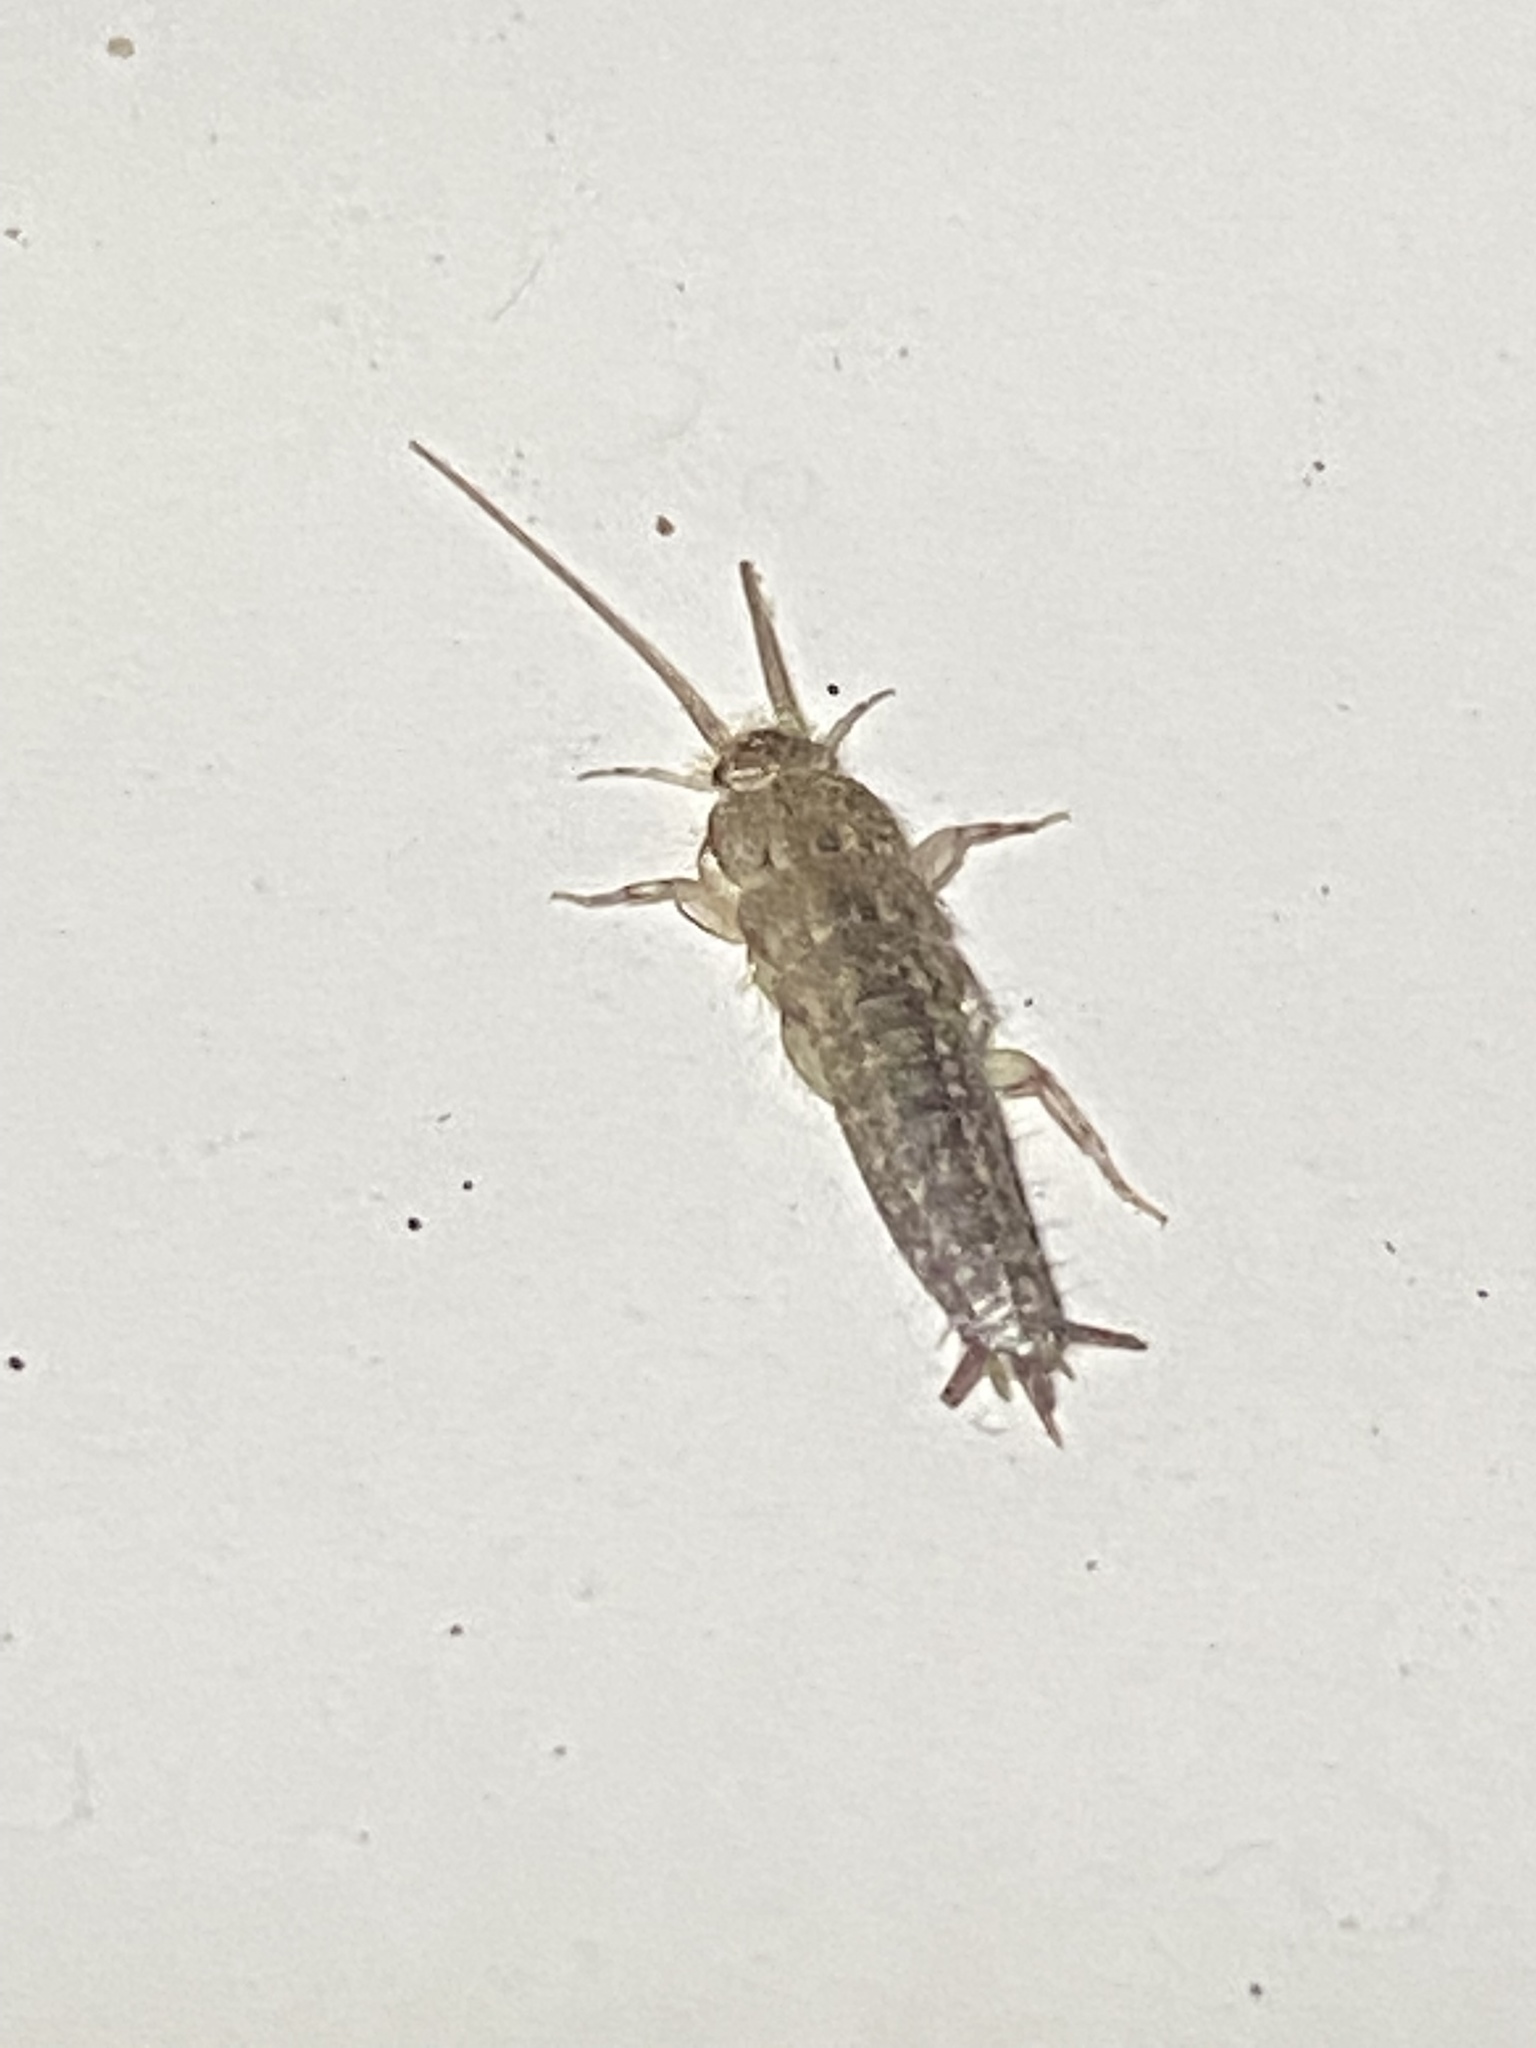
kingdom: Animalia
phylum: Arthropoda
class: Insecta
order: Zygentoma
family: Lepismatidae
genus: Ctenolepisma
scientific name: Ctenolepisma lineata
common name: Four-lined silverfish
